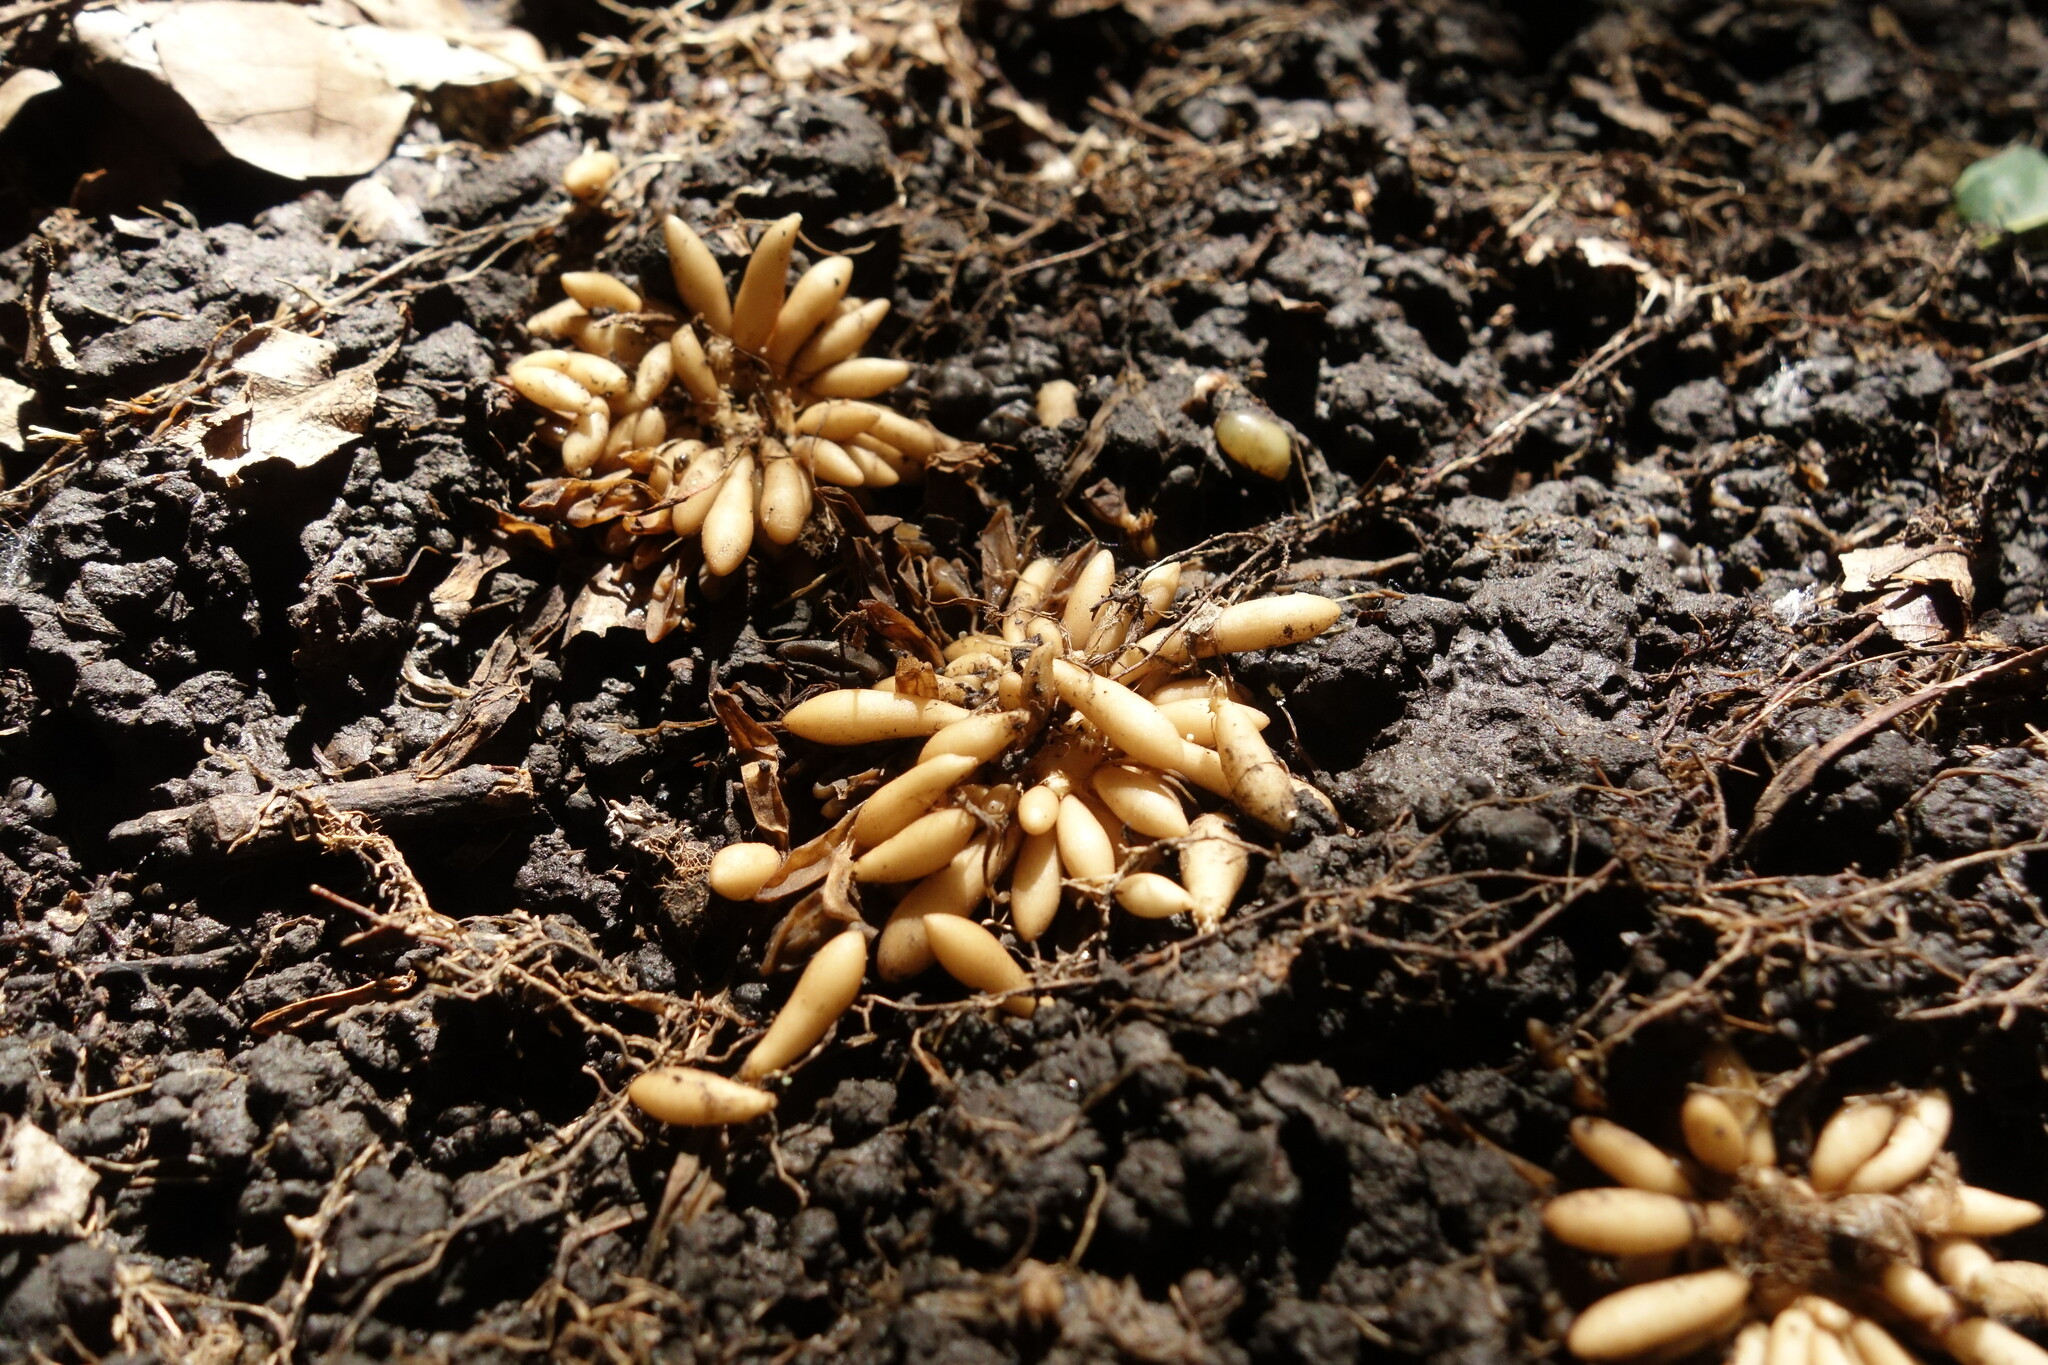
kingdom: Plantae
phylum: Tracheophyta
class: Magnoliopsida
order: Ranunculales
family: Ranunculaceae
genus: Ficaria
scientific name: Ficaria verna
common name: Lesser celandine
